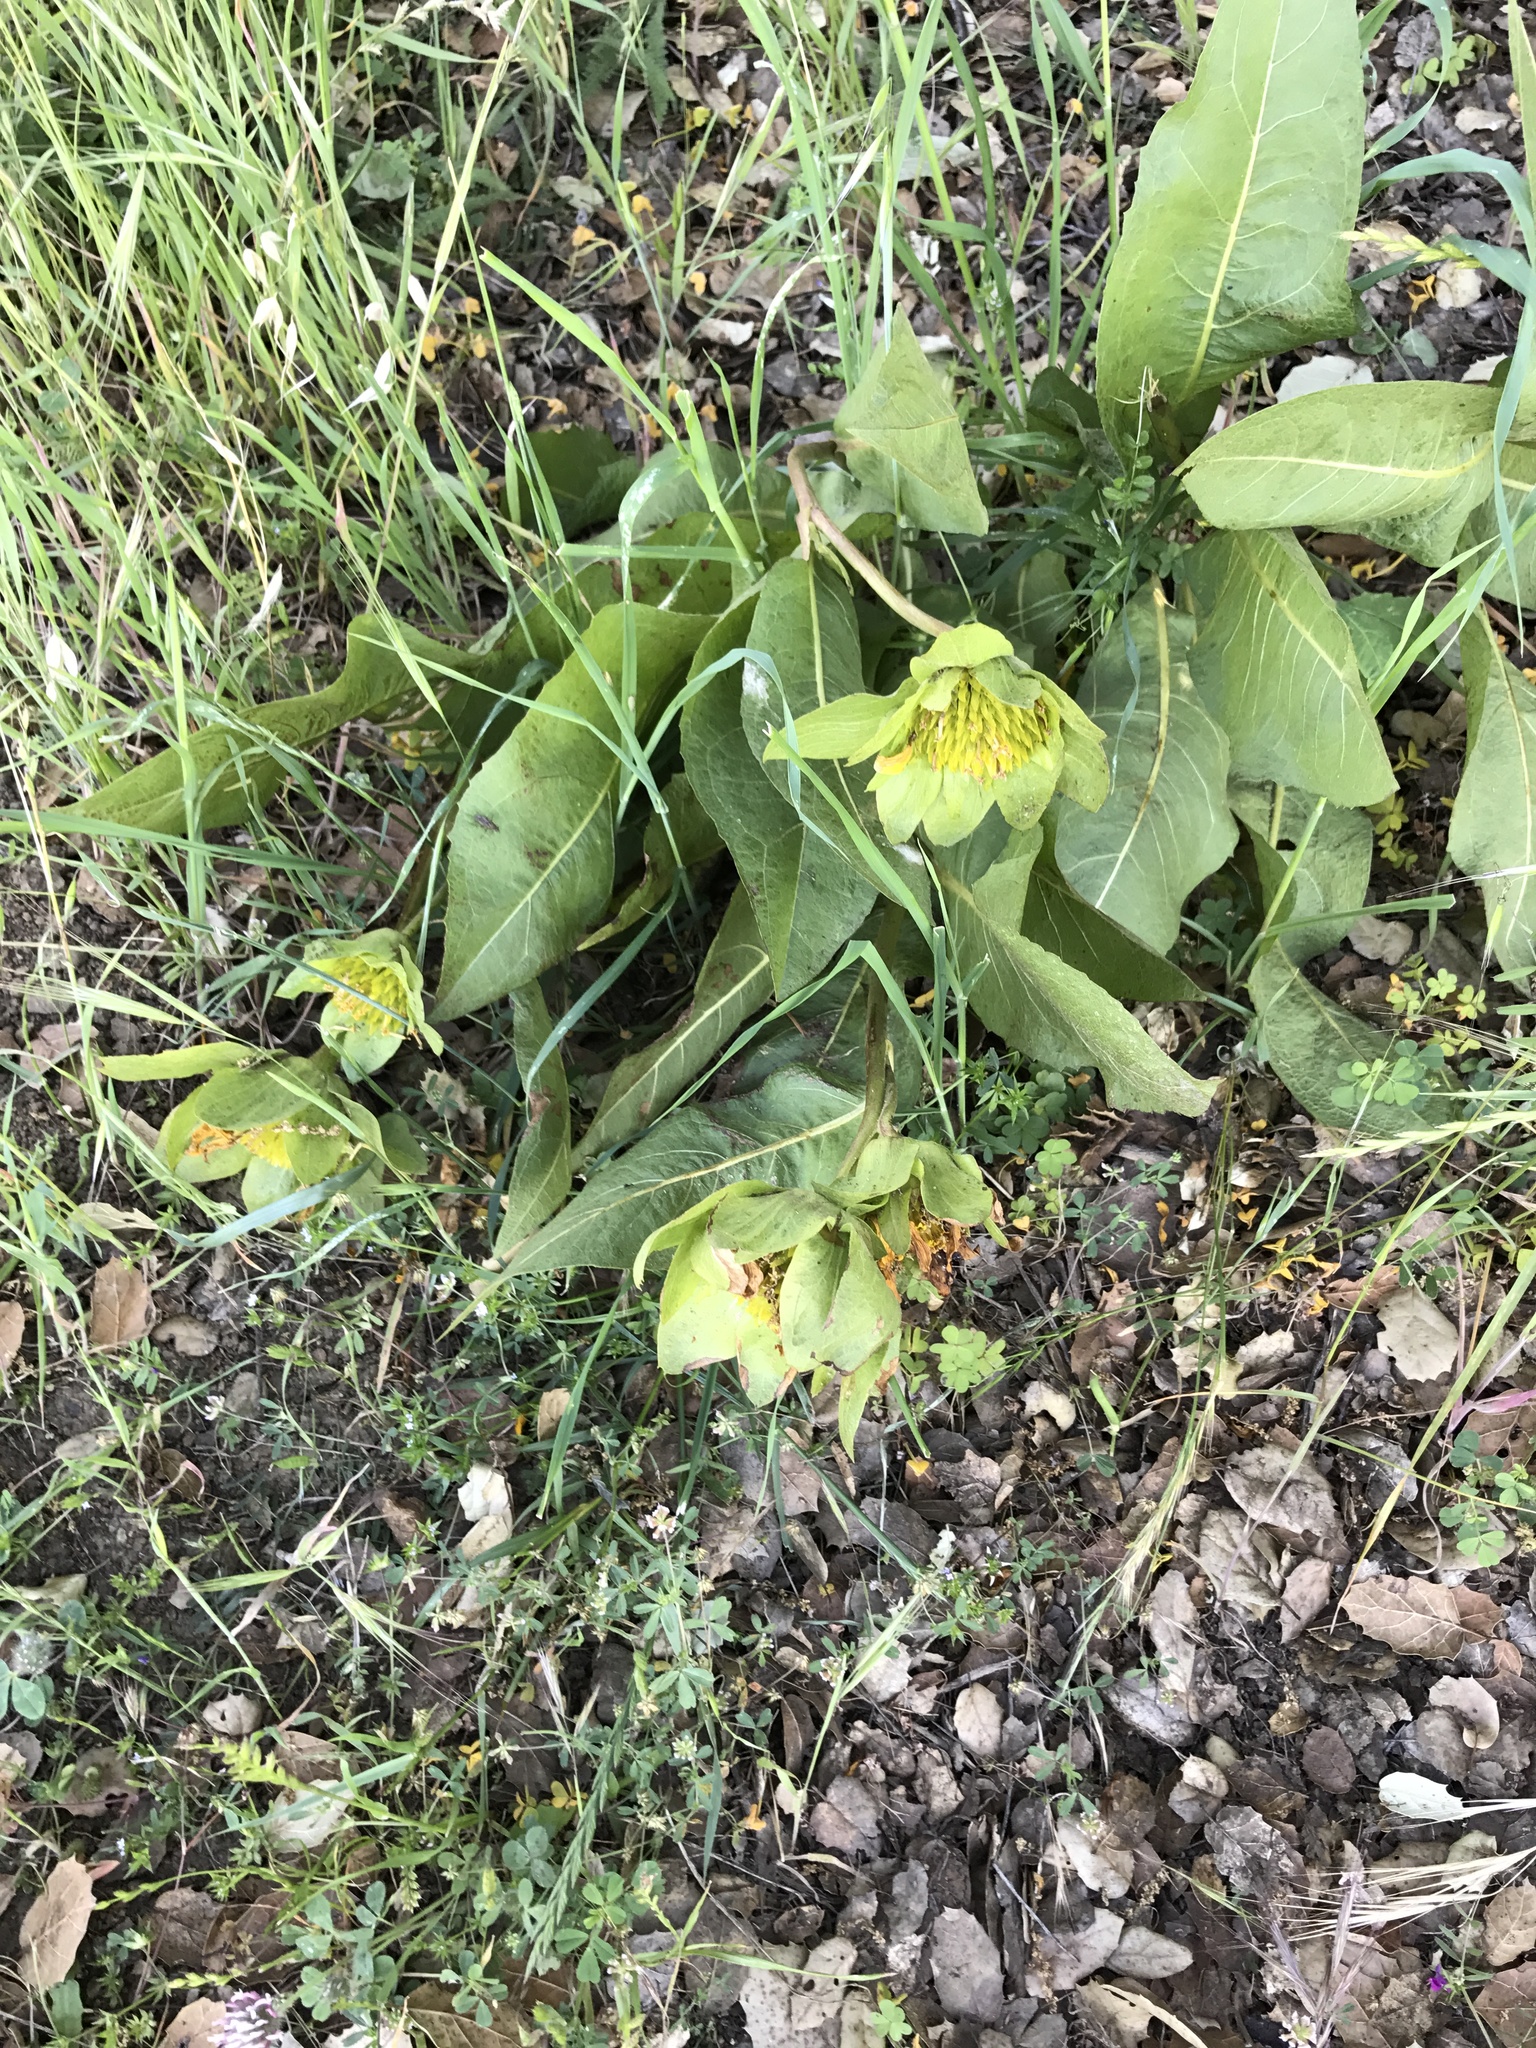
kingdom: Plantae
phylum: Tracheophyta
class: Magnoliopsida
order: Asterales
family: Asteraceae
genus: Wyethia
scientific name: Wyethia glabra
